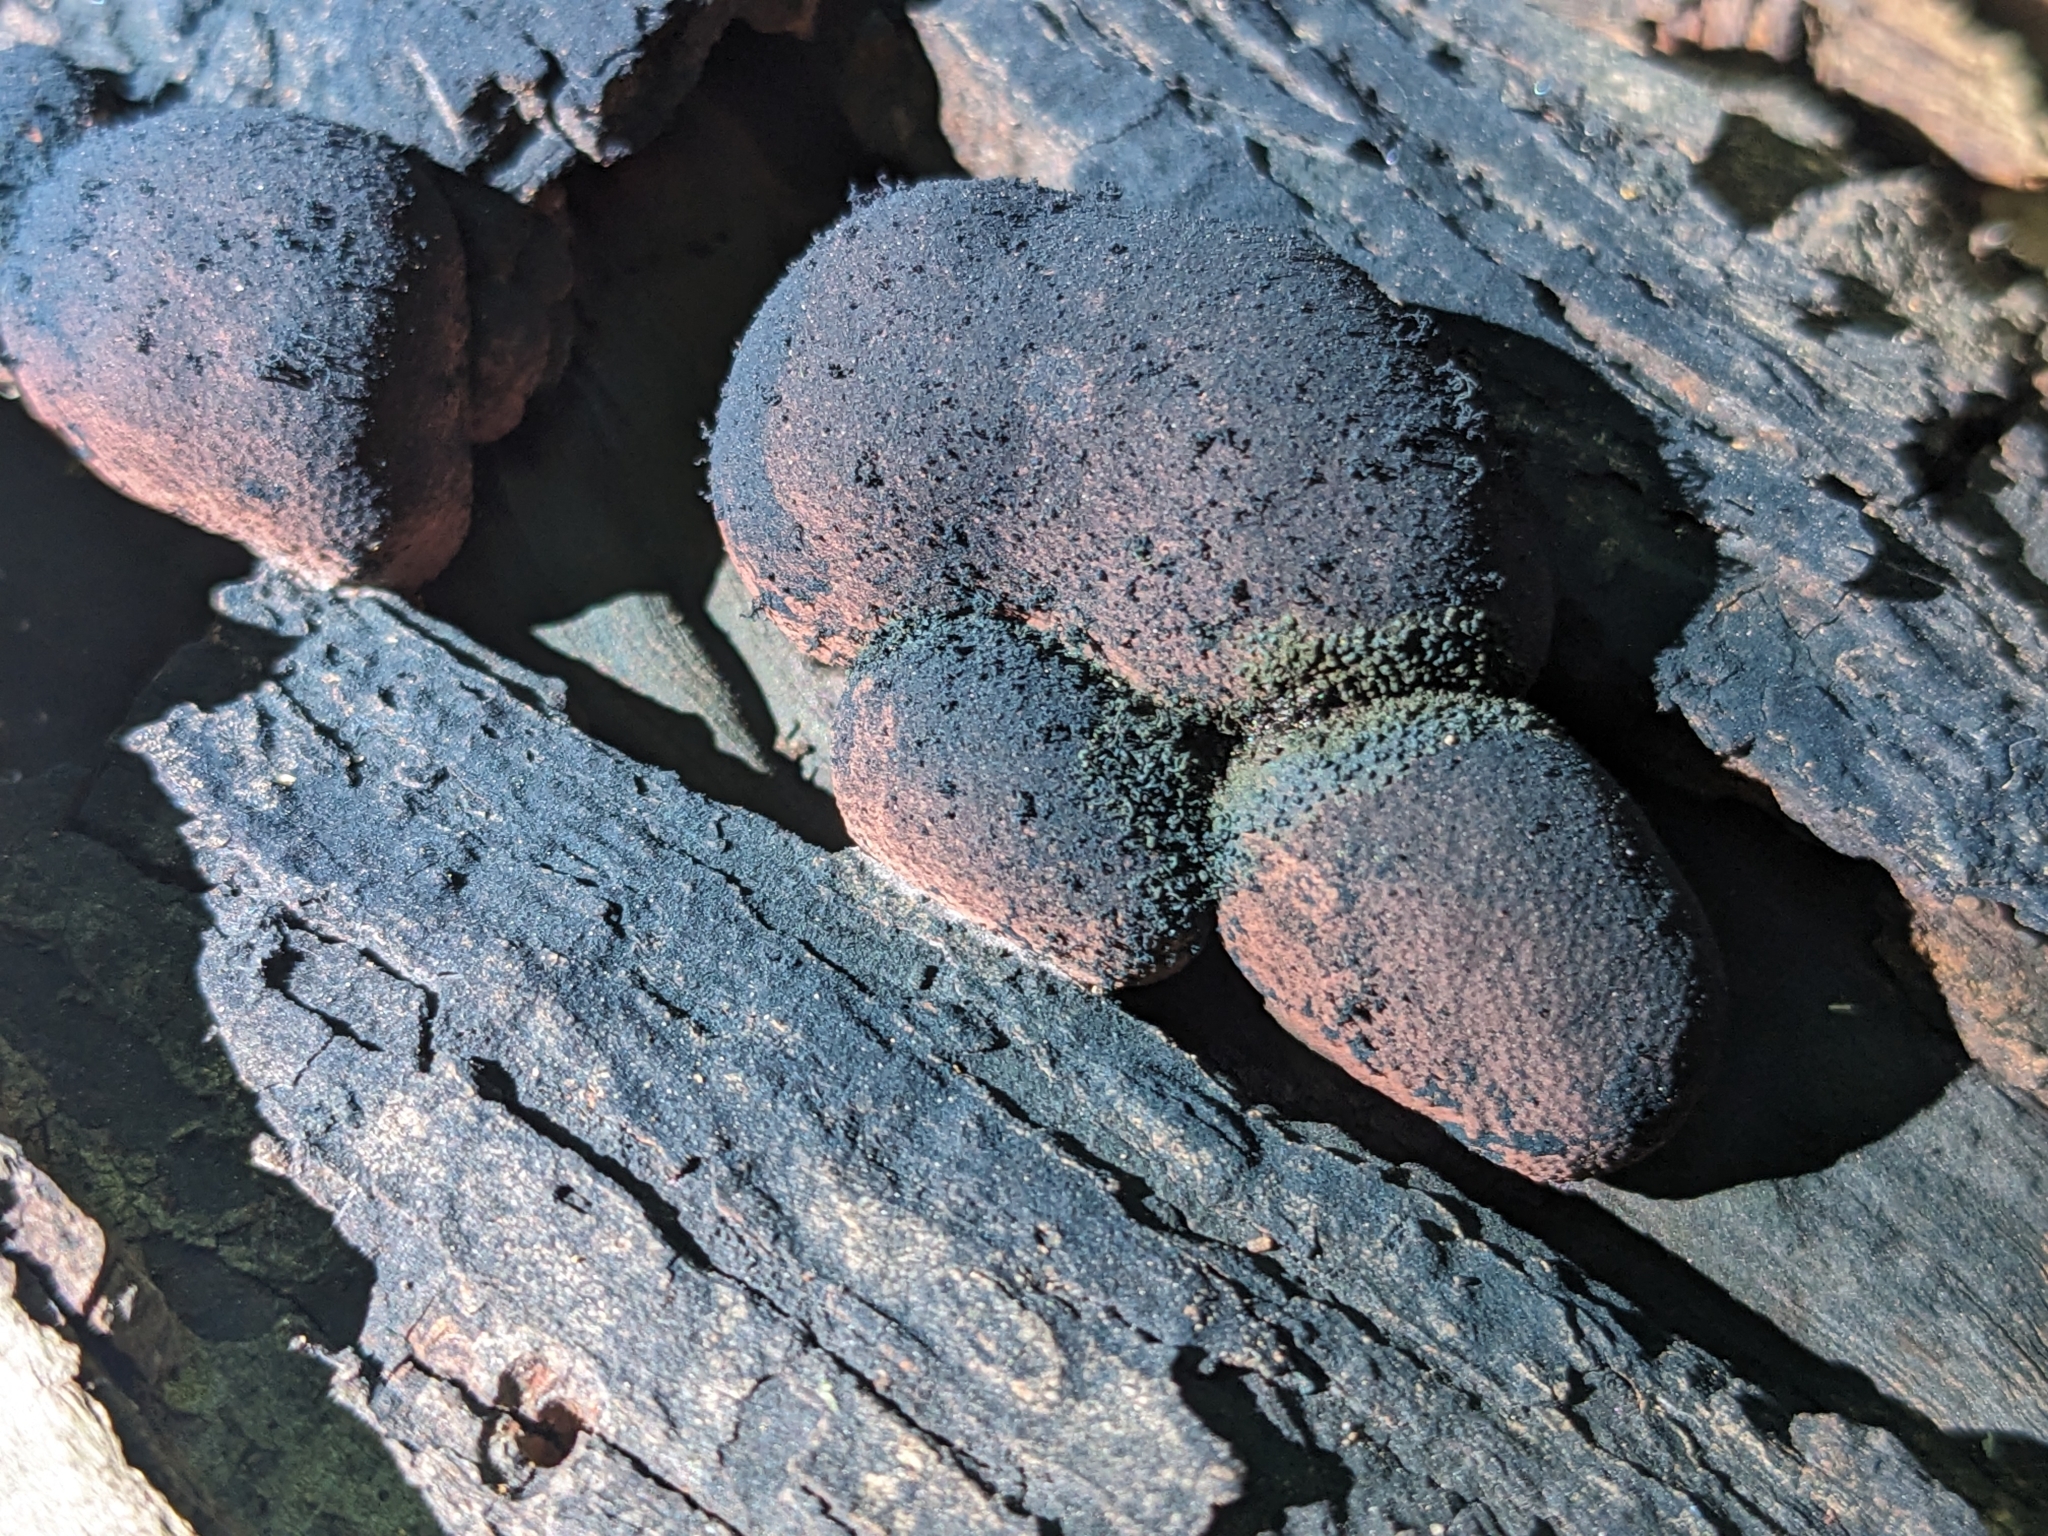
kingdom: Fungi
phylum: Ascomycota
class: Sordariomycetes
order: Xylariales
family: Hypoxylaceae
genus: Daldinia
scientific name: Daldinia childiae
